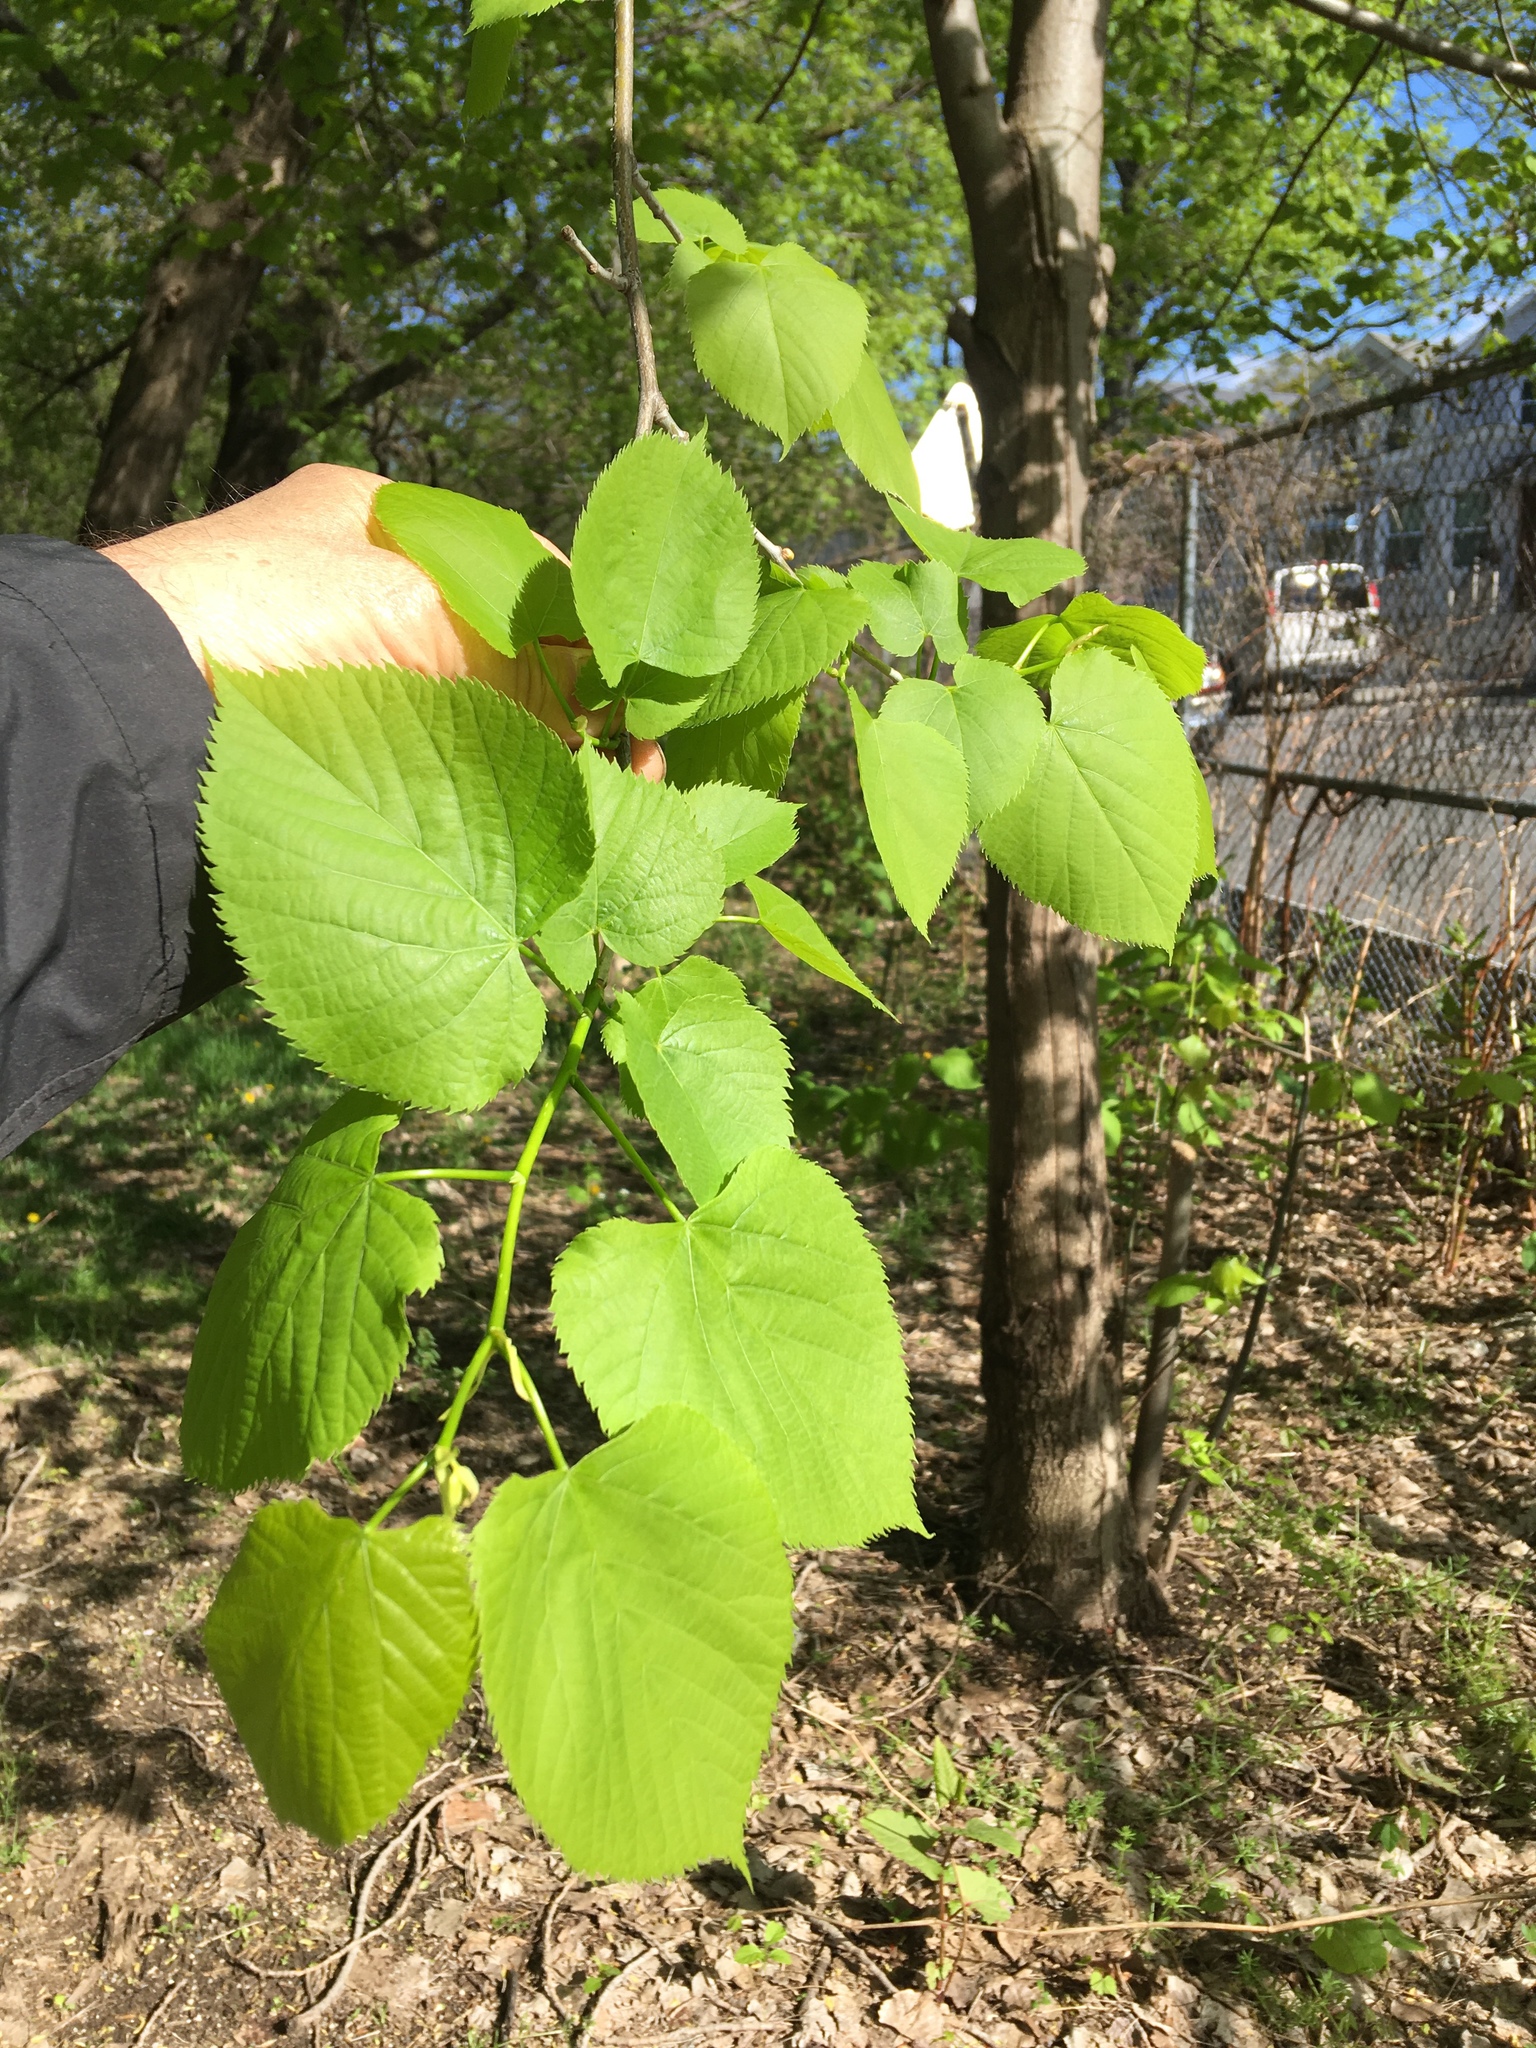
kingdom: Plantae
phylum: Tracheophyta
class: Magnoliopsida
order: Malvales
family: Malvaceae
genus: Tilia
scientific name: Tilia americana
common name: Basswood
